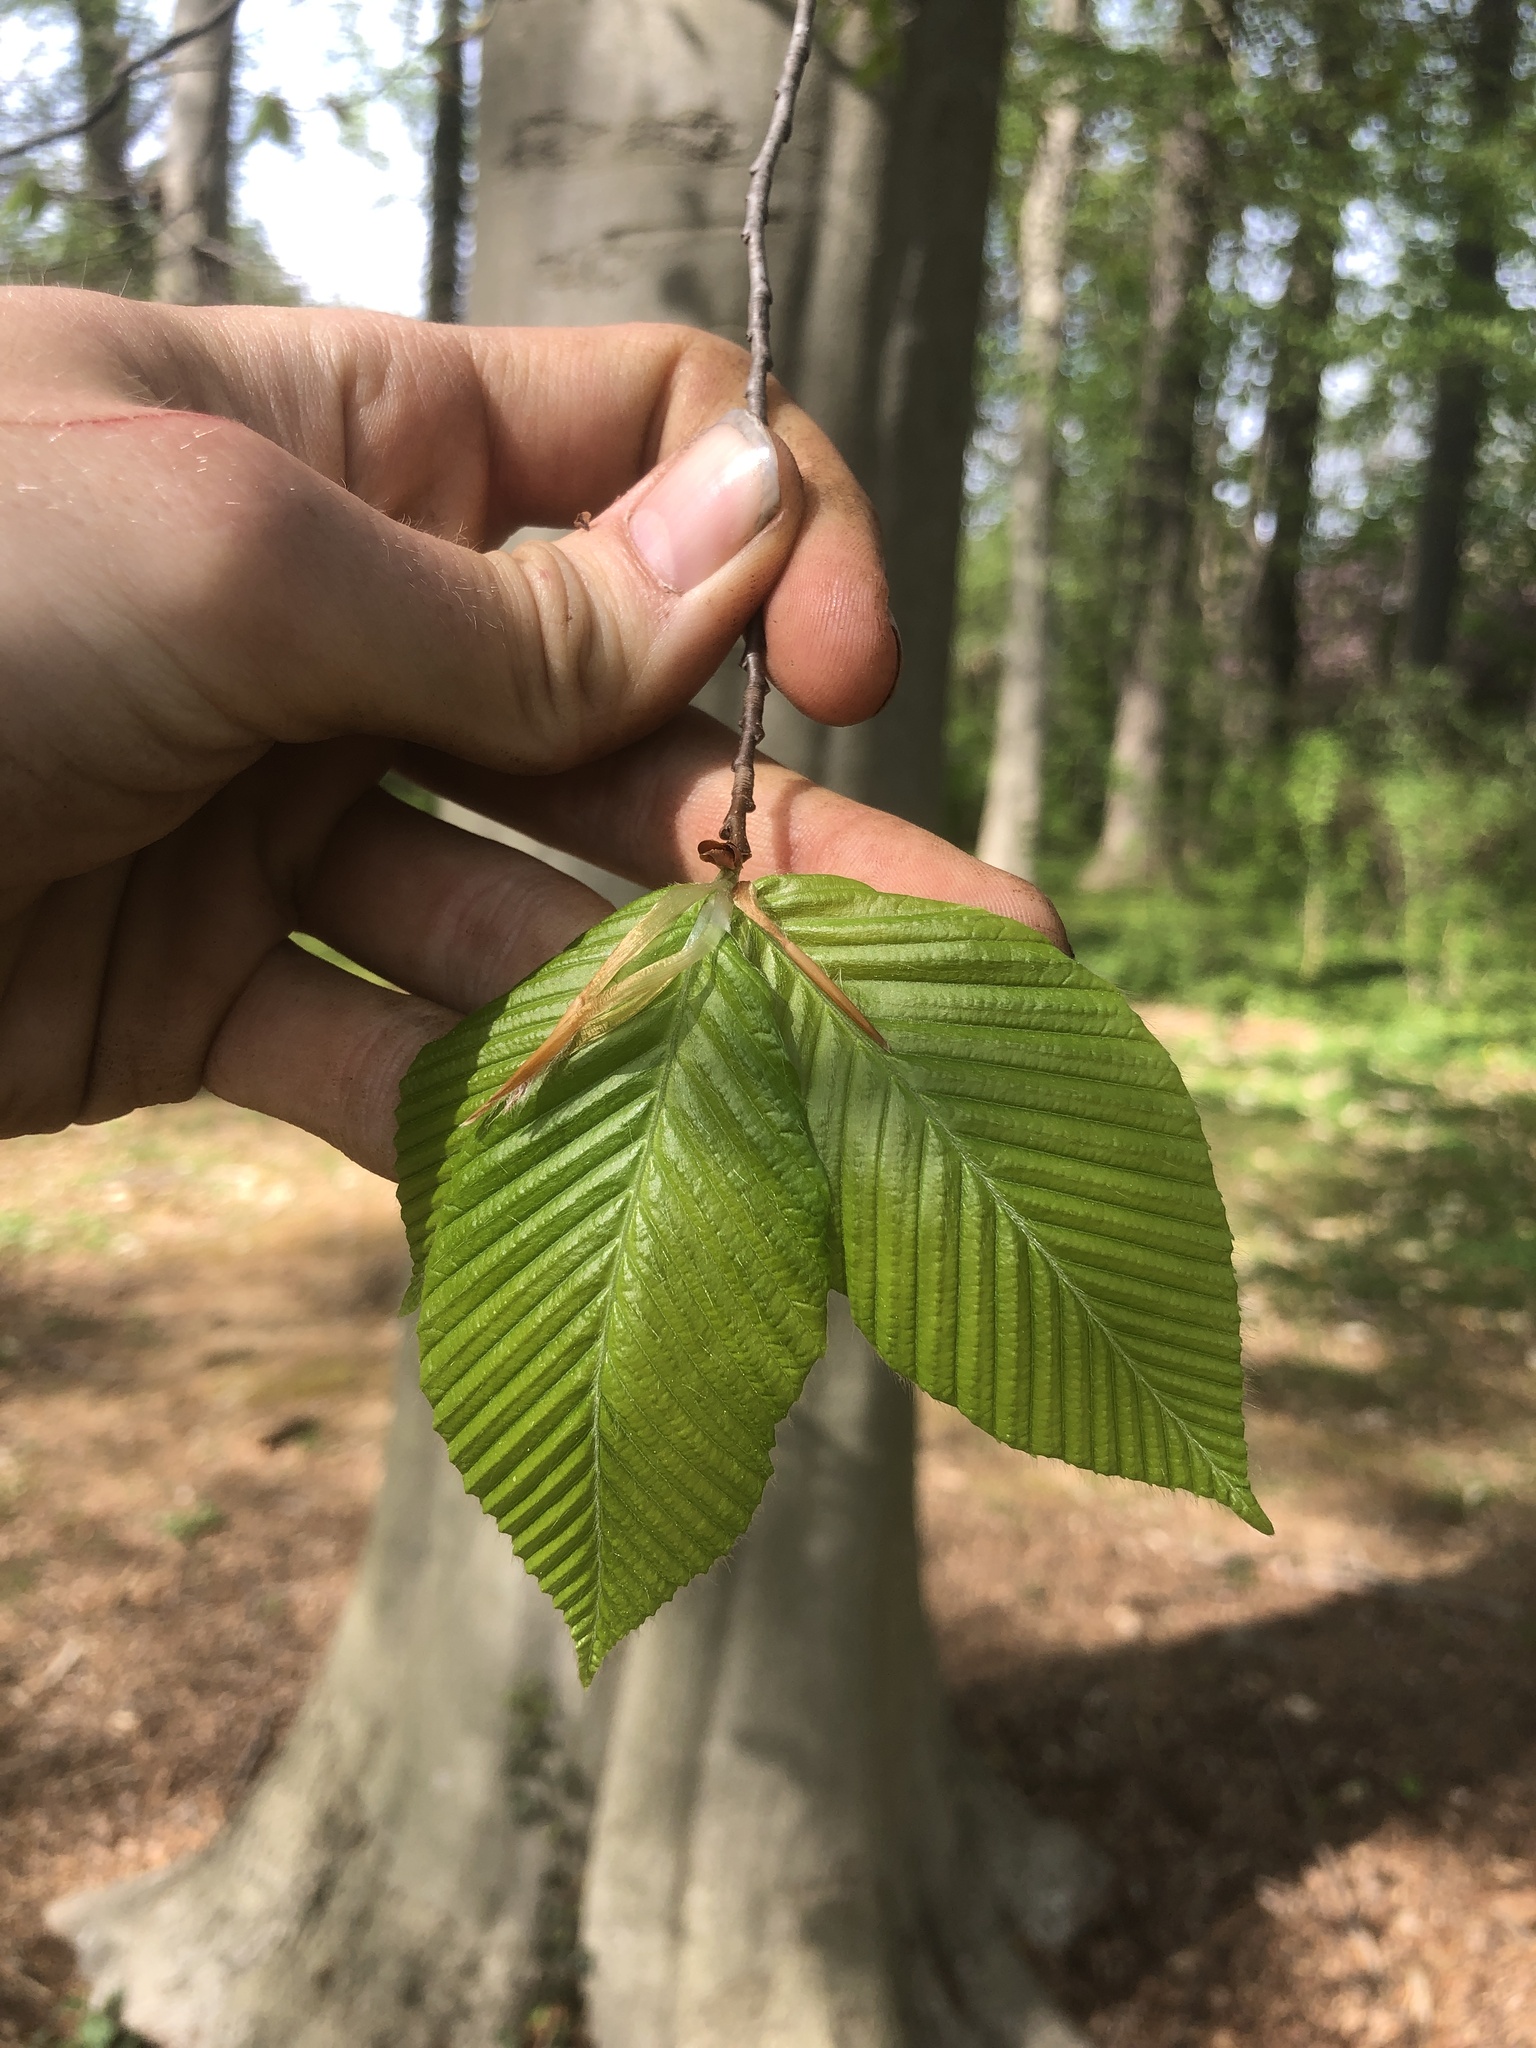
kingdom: Plantae
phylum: Tracheophyta
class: Magnoliopsida
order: Fagales
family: Fagaceae
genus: Fagus
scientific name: Fagus grandifolia
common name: American beech
